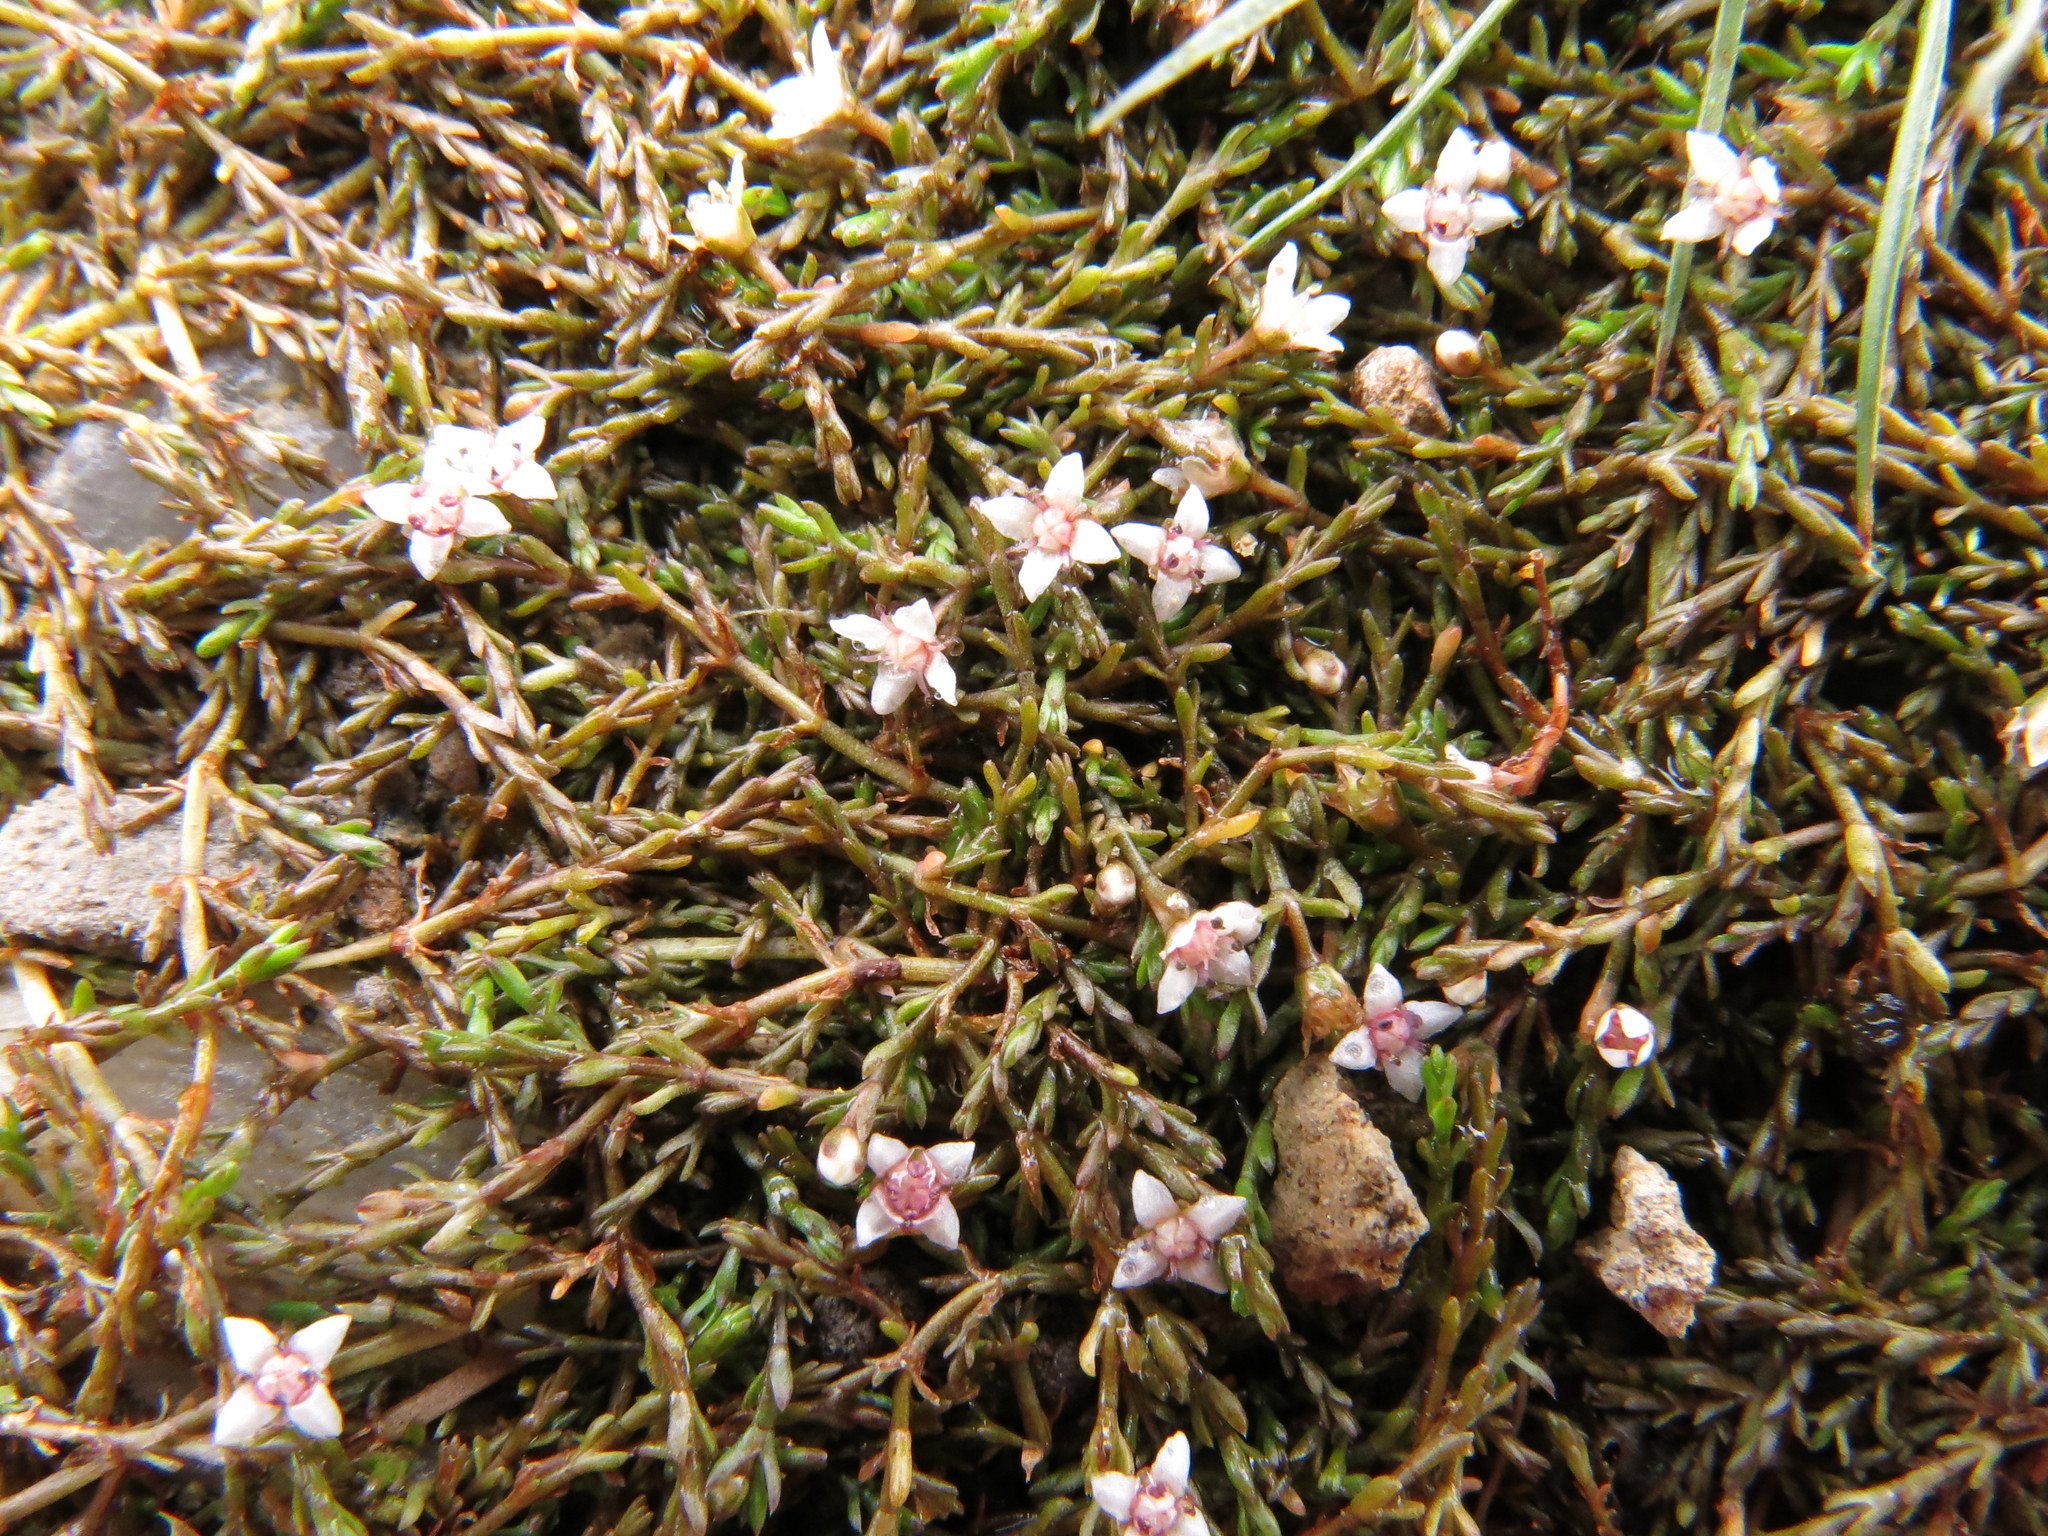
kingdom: Plantae
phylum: Tracheophyta
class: Magnoliopsida
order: Saxifragales
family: Crassulaceae
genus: Crassula
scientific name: Crassula sinclairii
